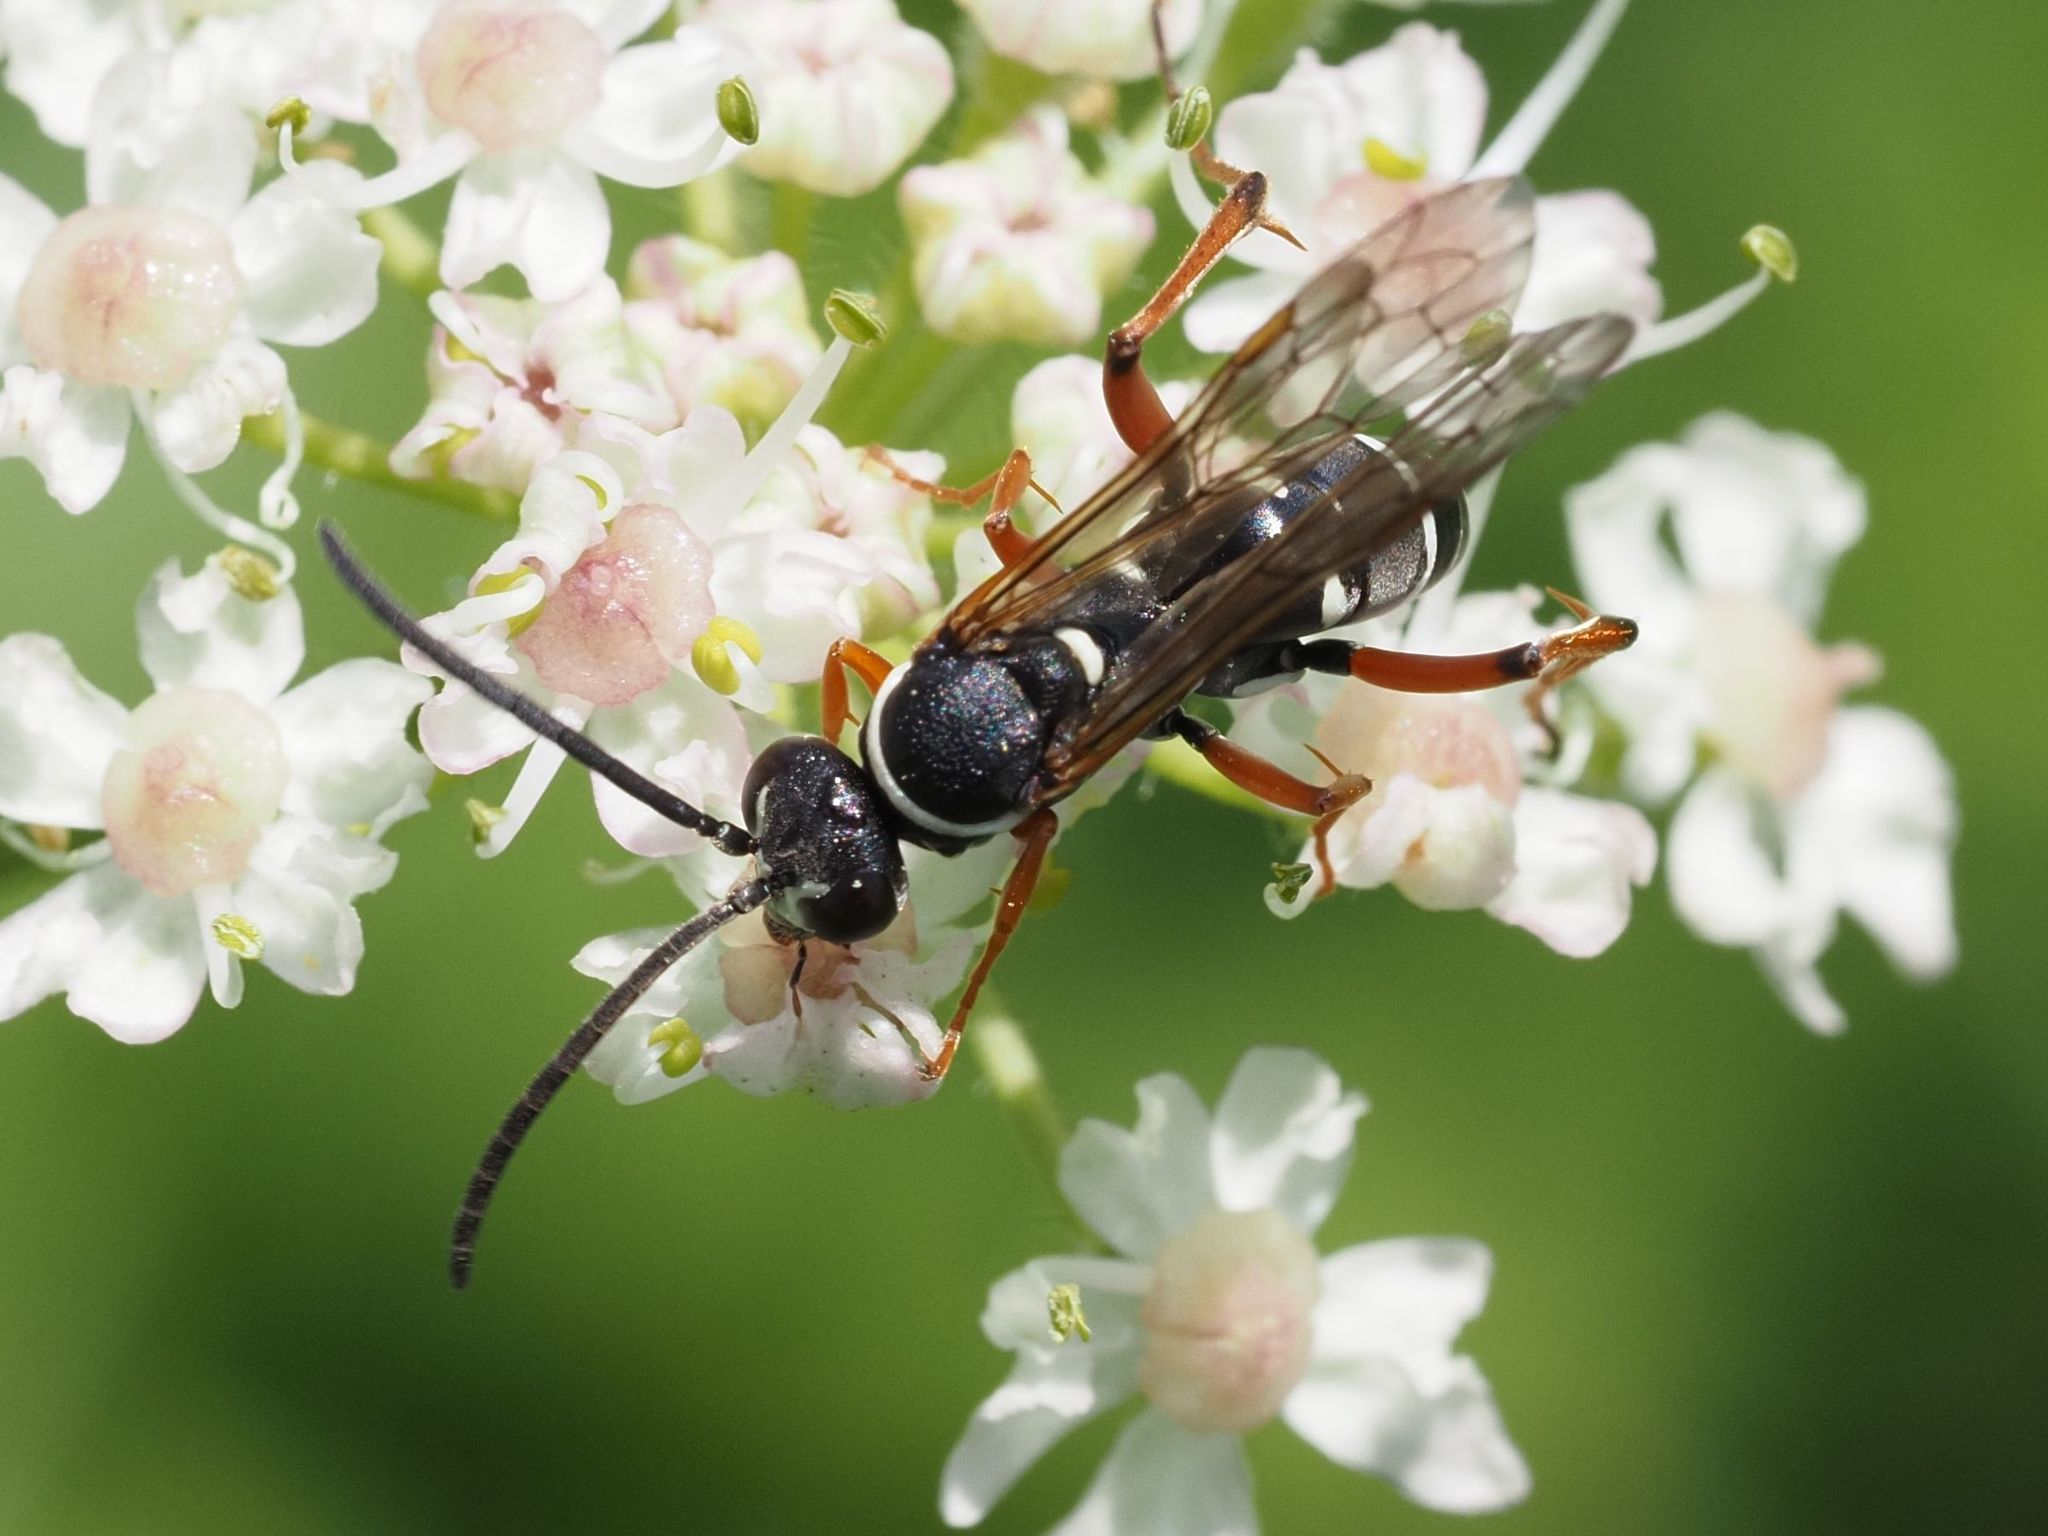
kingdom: Animalia
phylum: Arthropoda
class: Insecta
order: Hymenoptera
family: Pompilidae
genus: Ceropales
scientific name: Ceropales maculata
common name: Spider wasp
